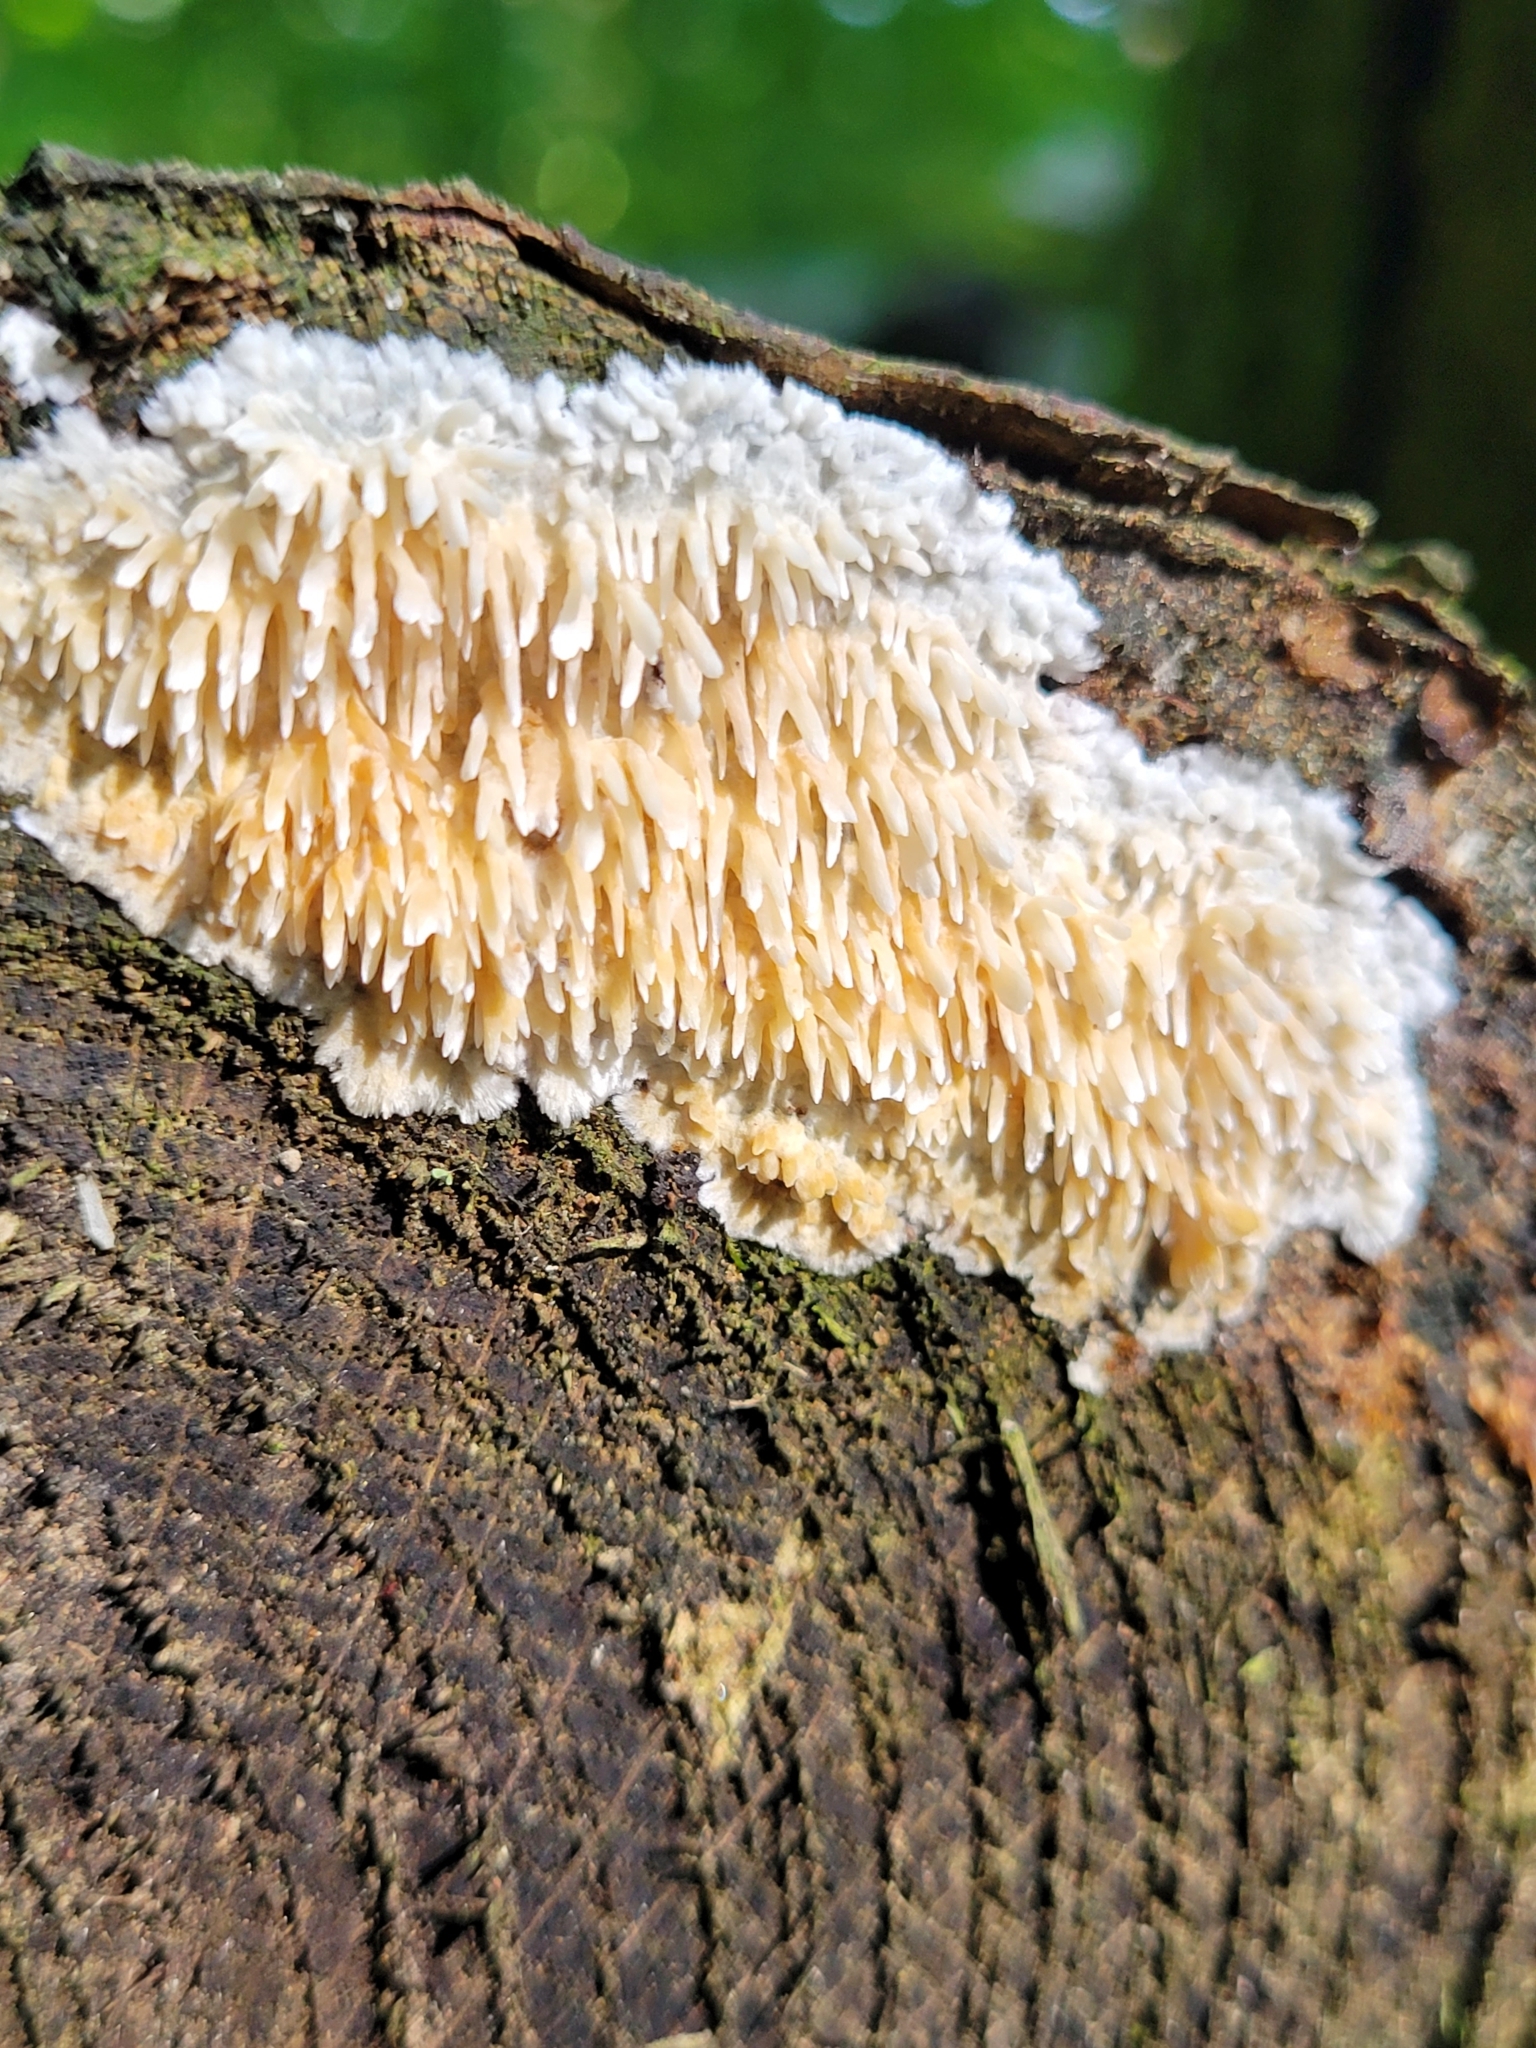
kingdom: Fungi
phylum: Basidiomycota
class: Agaricomycetes
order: Agaricales
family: Radulomycetaceae
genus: Radulomyces
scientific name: Radulomyces copelandii
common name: Asian beauty
